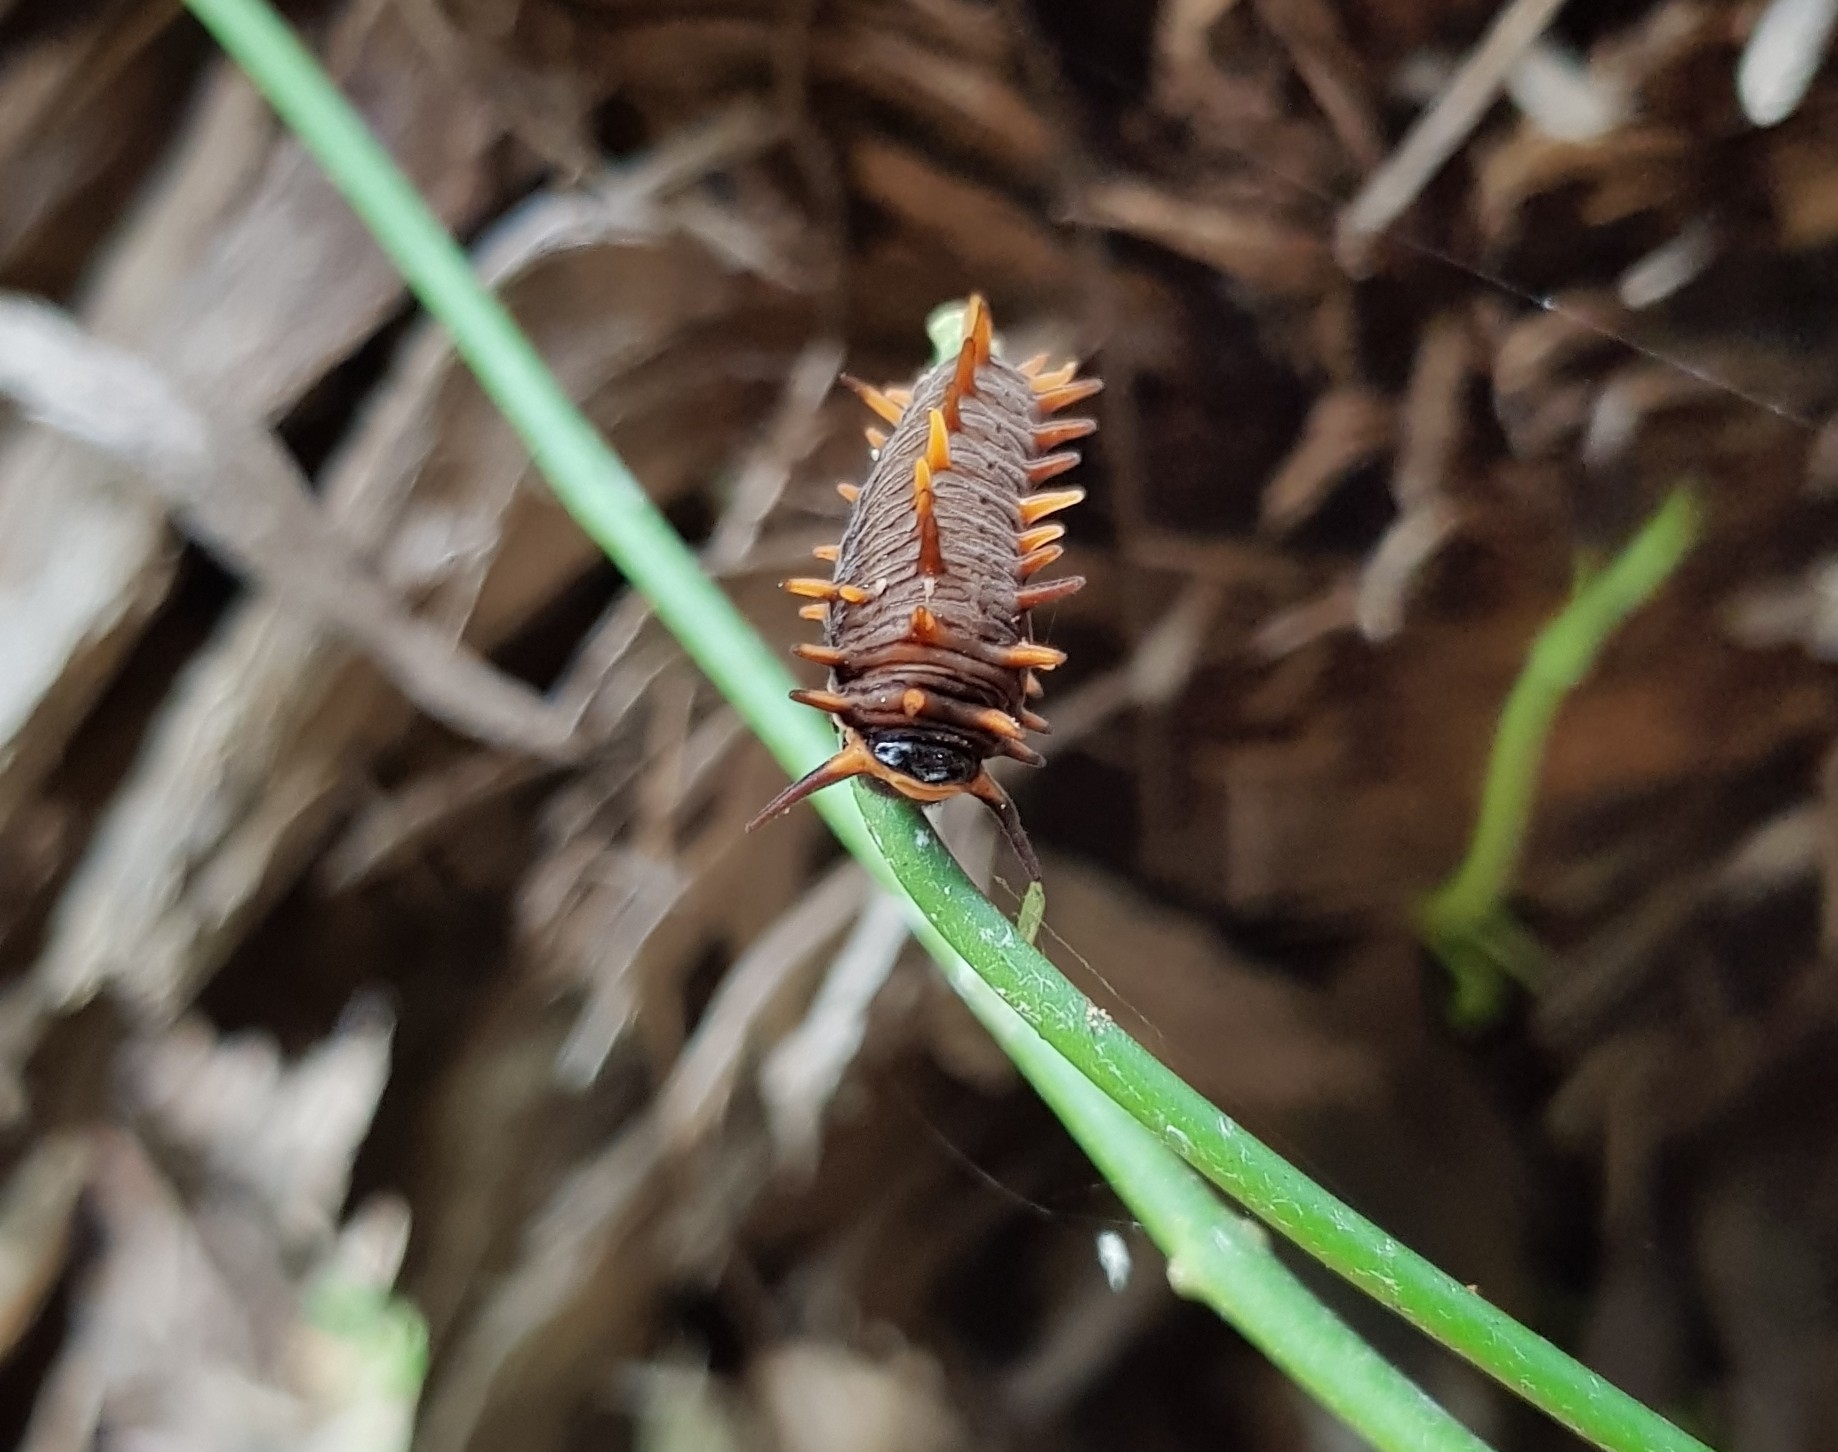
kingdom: Animalia
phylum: Arthropoda
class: Insecta
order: Lepidoptera
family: Papilionidae
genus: Battus
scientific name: Battus polydamas
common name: Polydamas swallowtail
